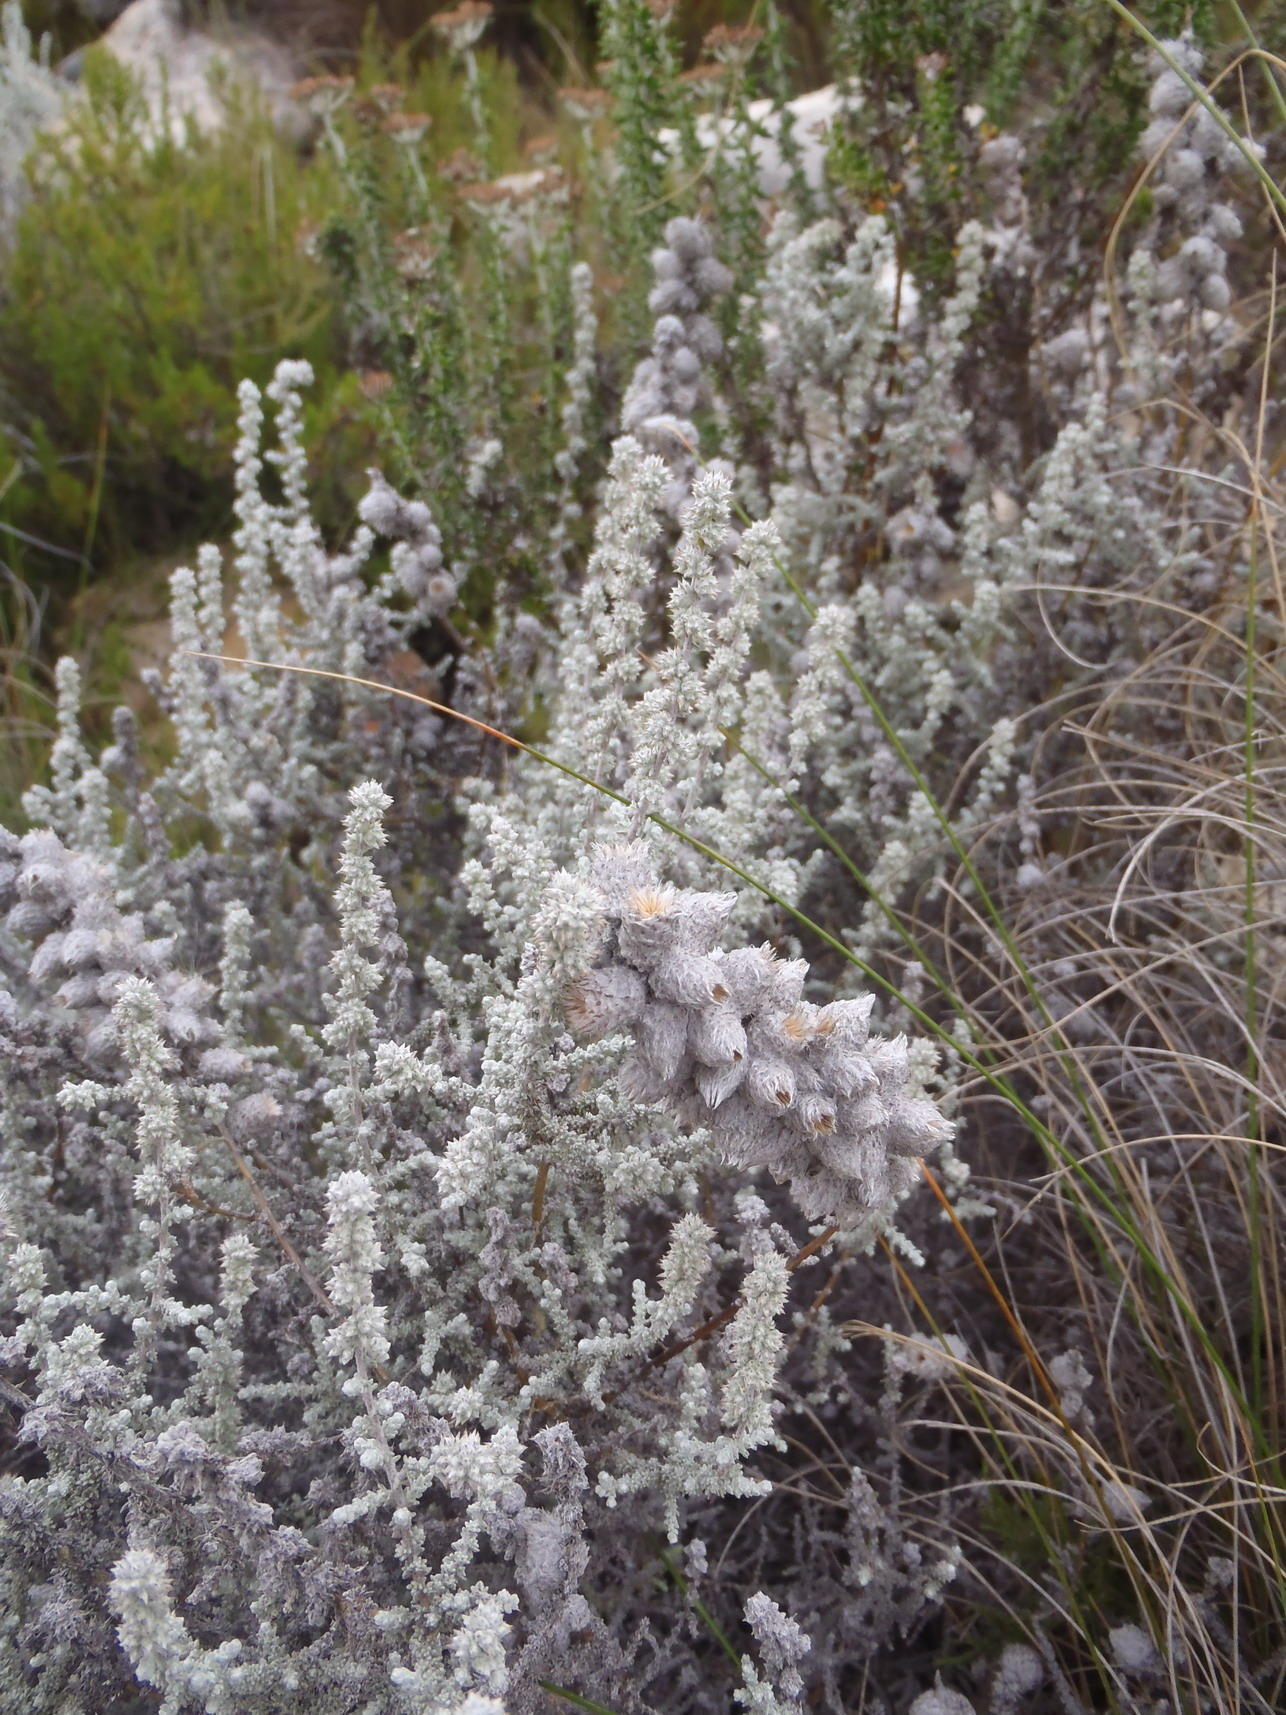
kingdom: Plantae
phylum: Tracheophyta
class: Magnoliopsida
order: Asterales
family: Asteraceae
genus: Seriphium
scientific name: Seriphium plumosum
